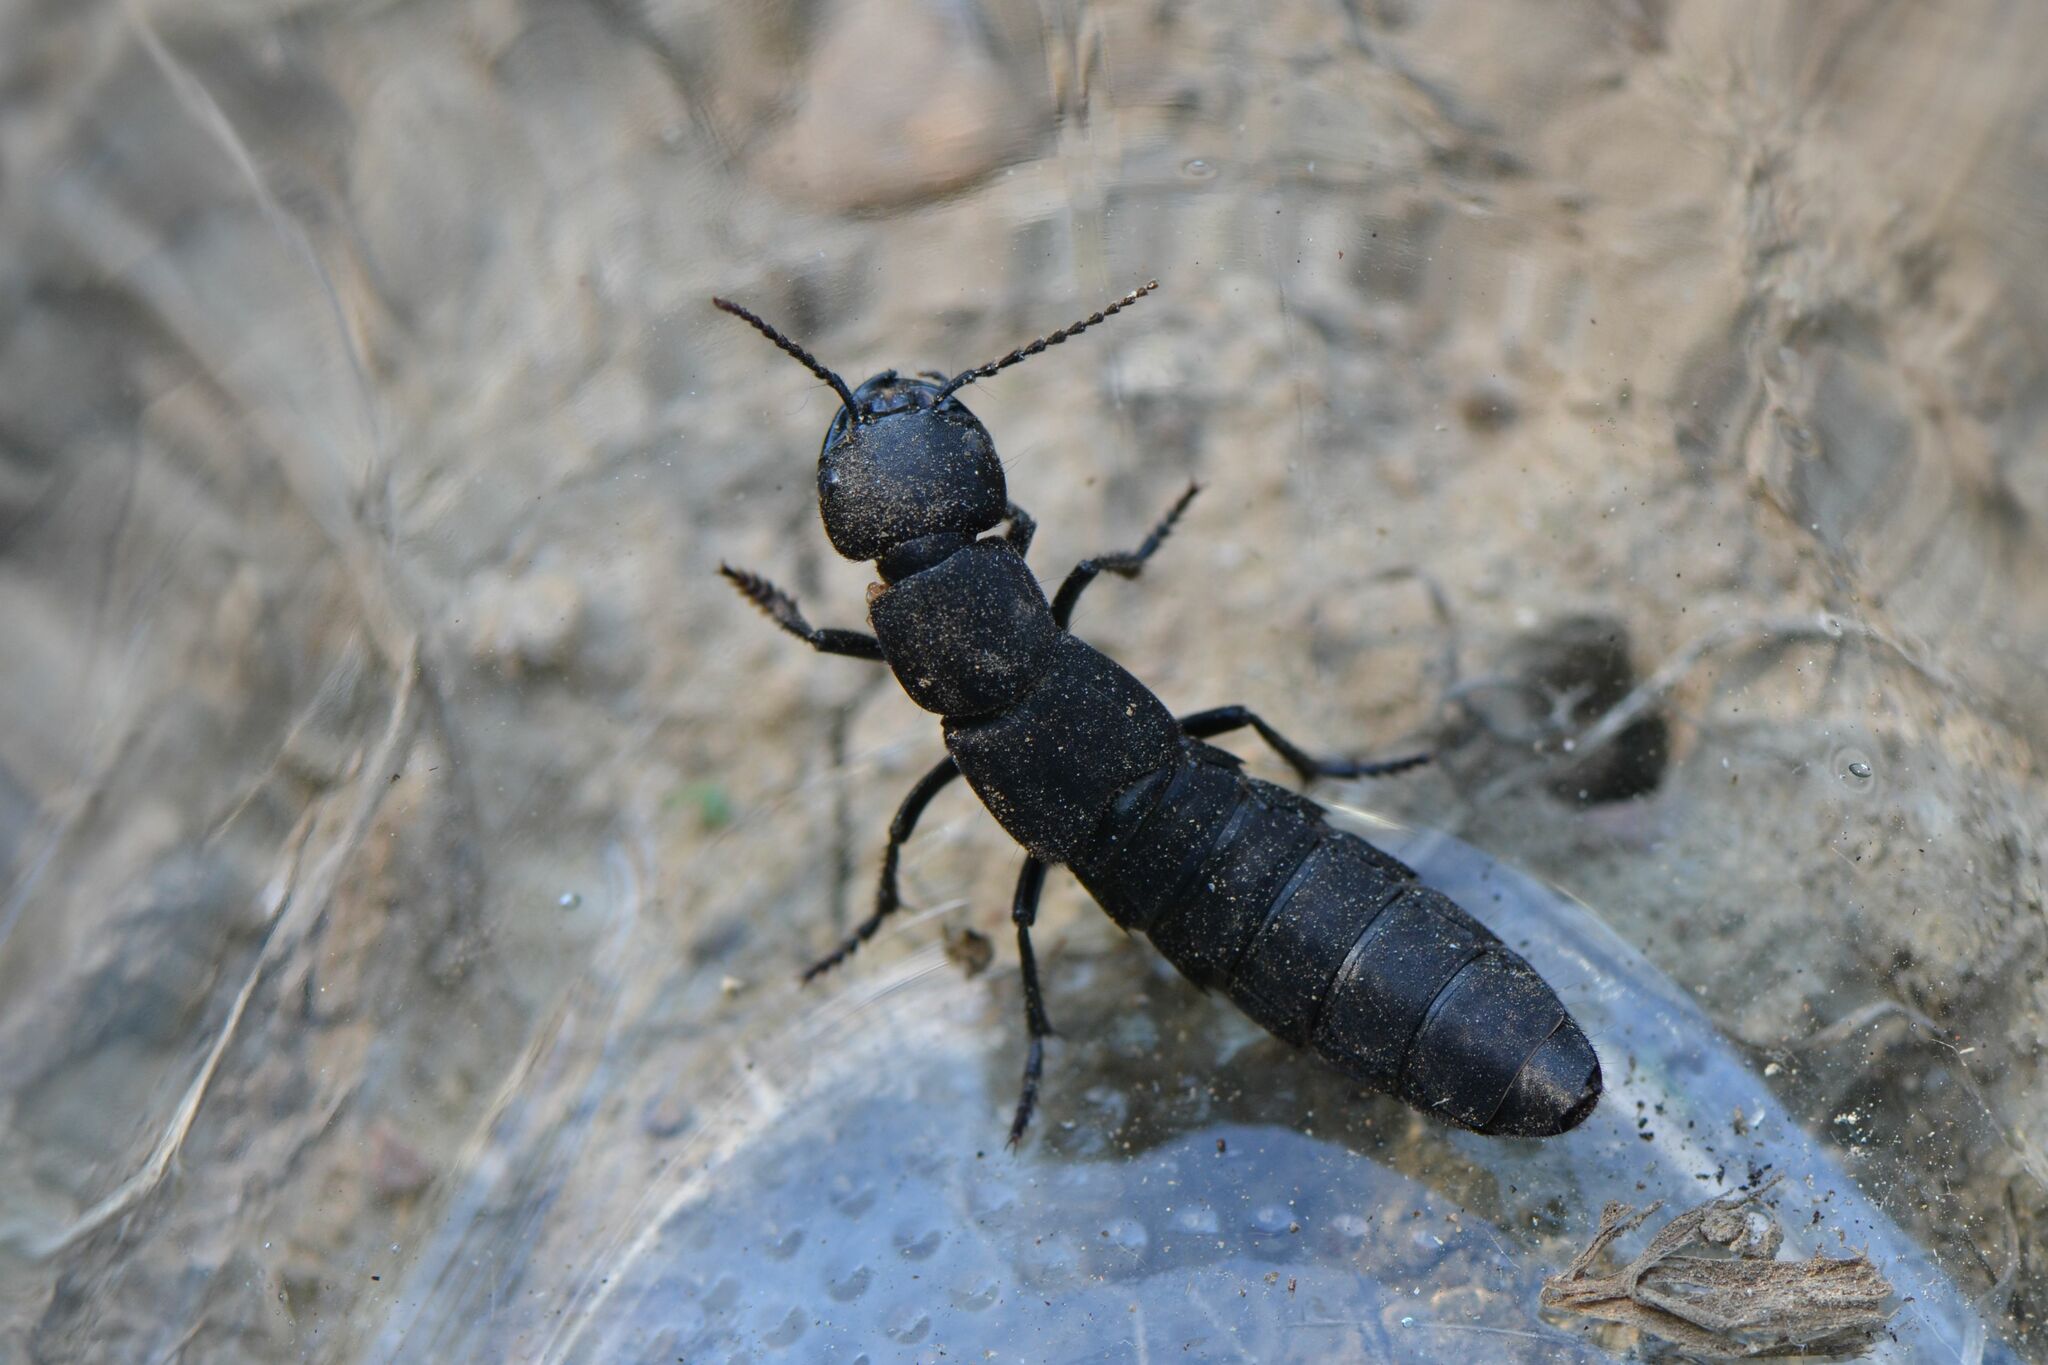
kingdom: Animalia
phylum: Arthropoda
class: Insecta
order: Coleoptera
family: Staphylinidae
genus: Ocypus
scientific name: Ocypus olens
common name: Devil's coach-horse
